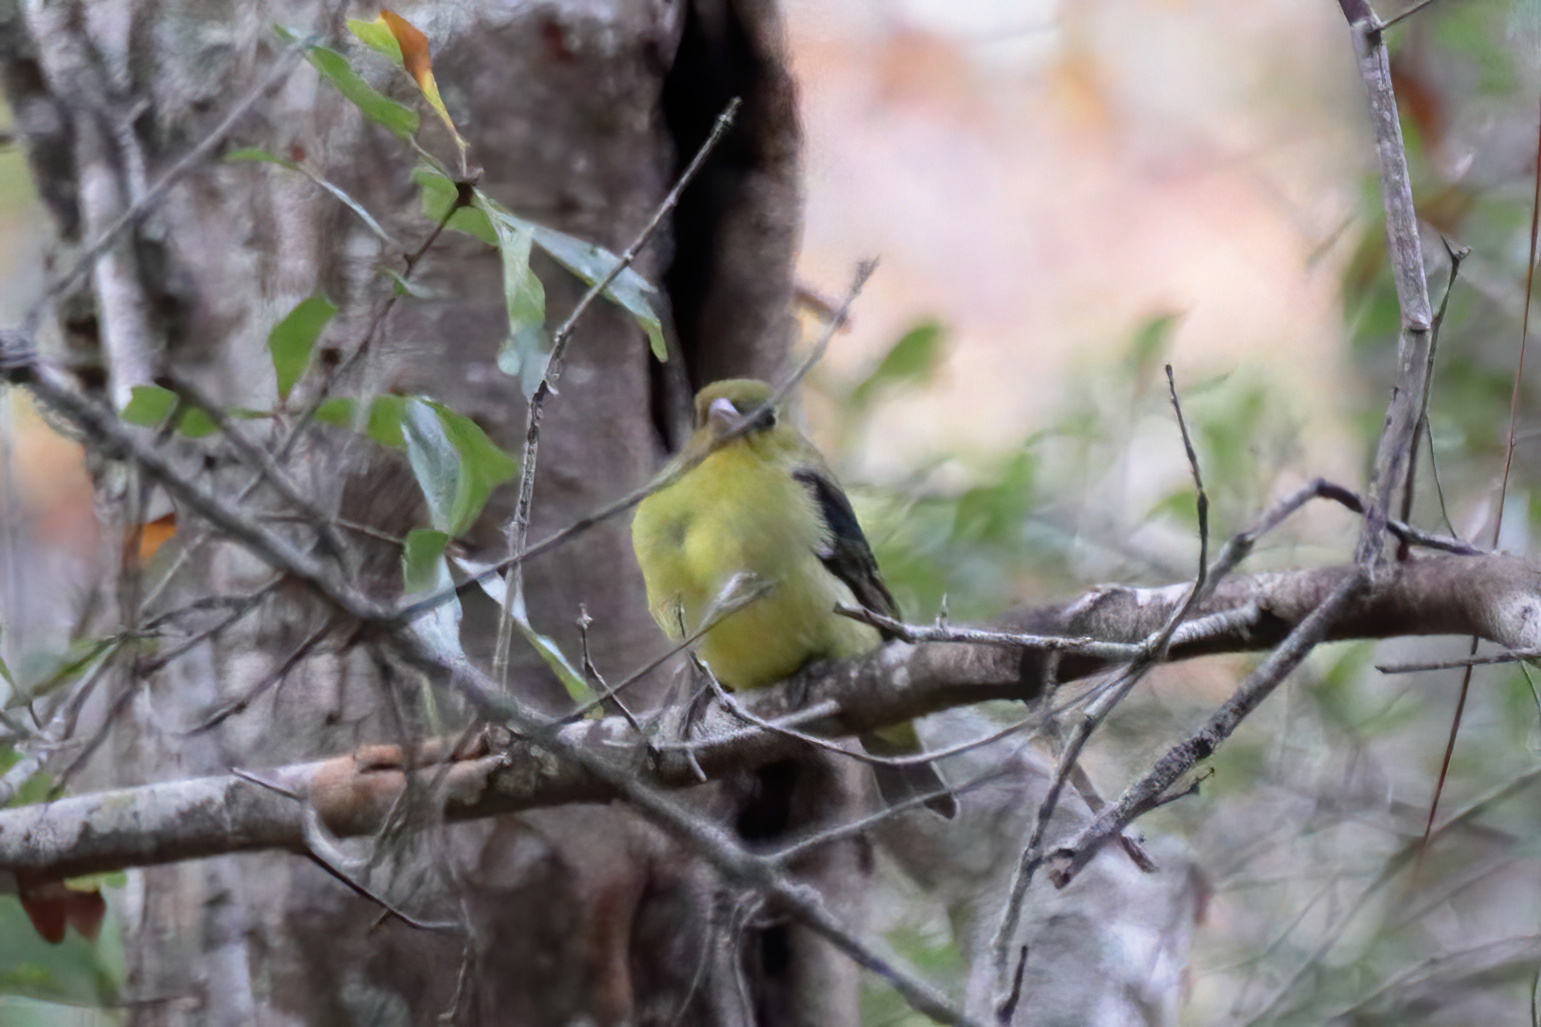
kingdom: Animalia
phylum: Chordata
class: Aves
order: Passeriformes
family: Cardinalidae
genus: Piranga
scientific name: Piranga olivacea
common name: Scarlet tanager
